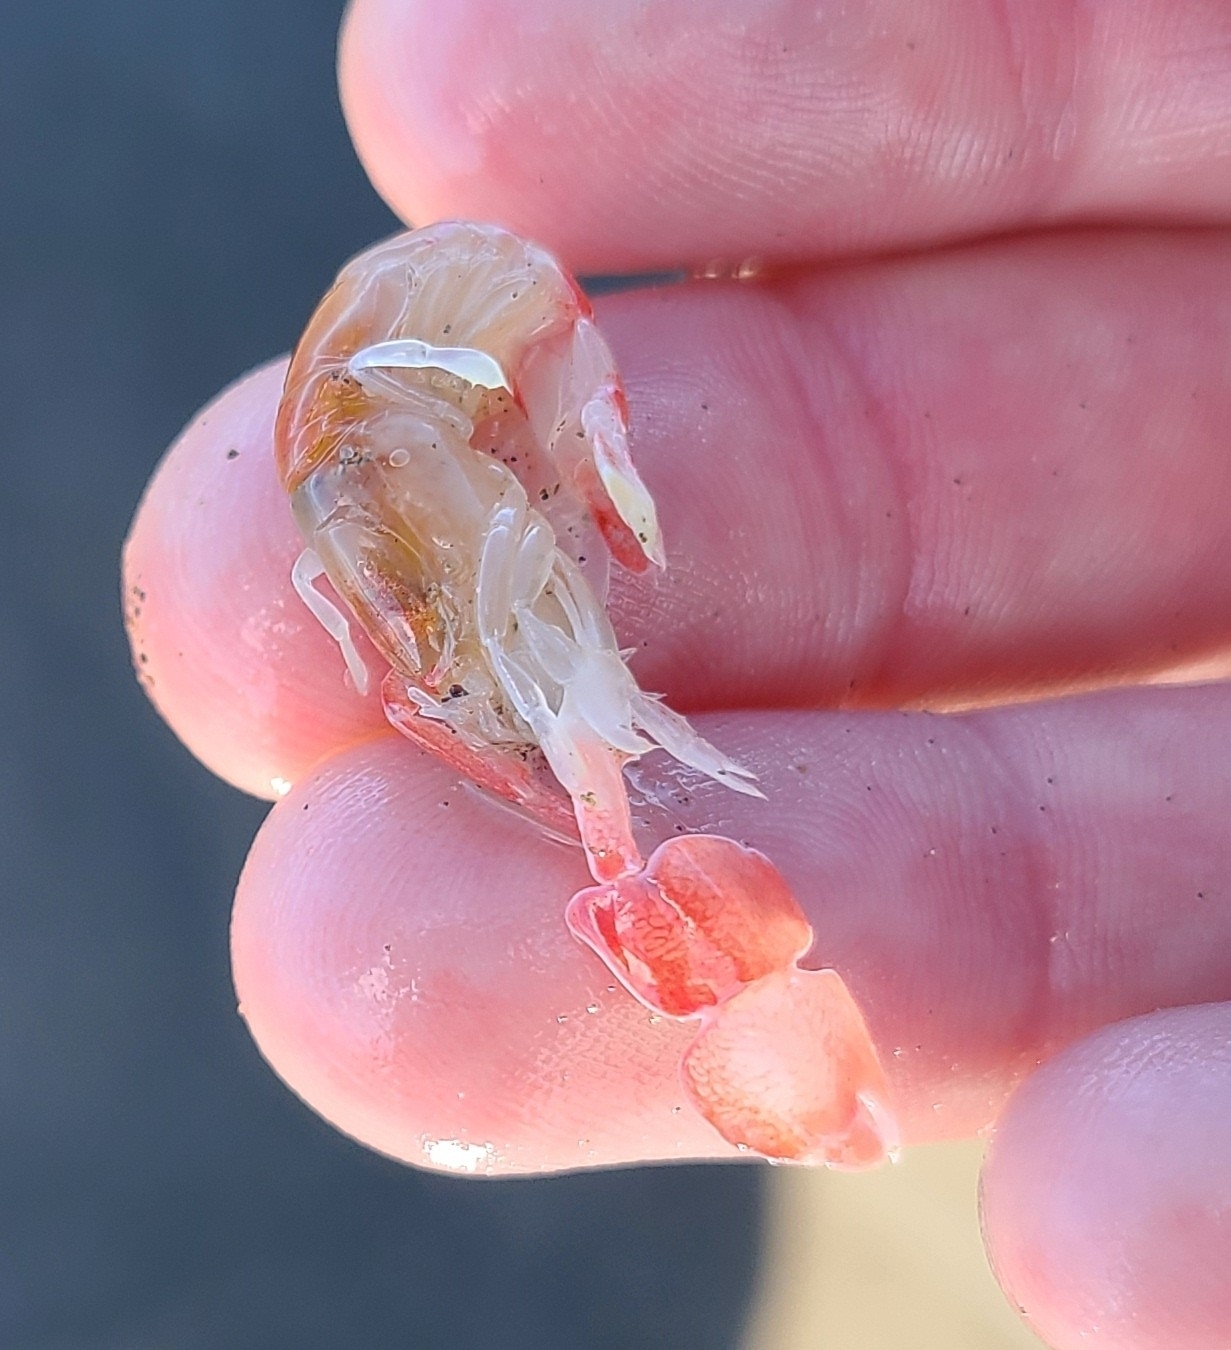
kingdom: Animalia
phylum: Arthropoda
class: Malacostraca
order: Decapoda
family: Callianassidae
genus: Filhollianassa
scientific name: Filhollianassa filholi
